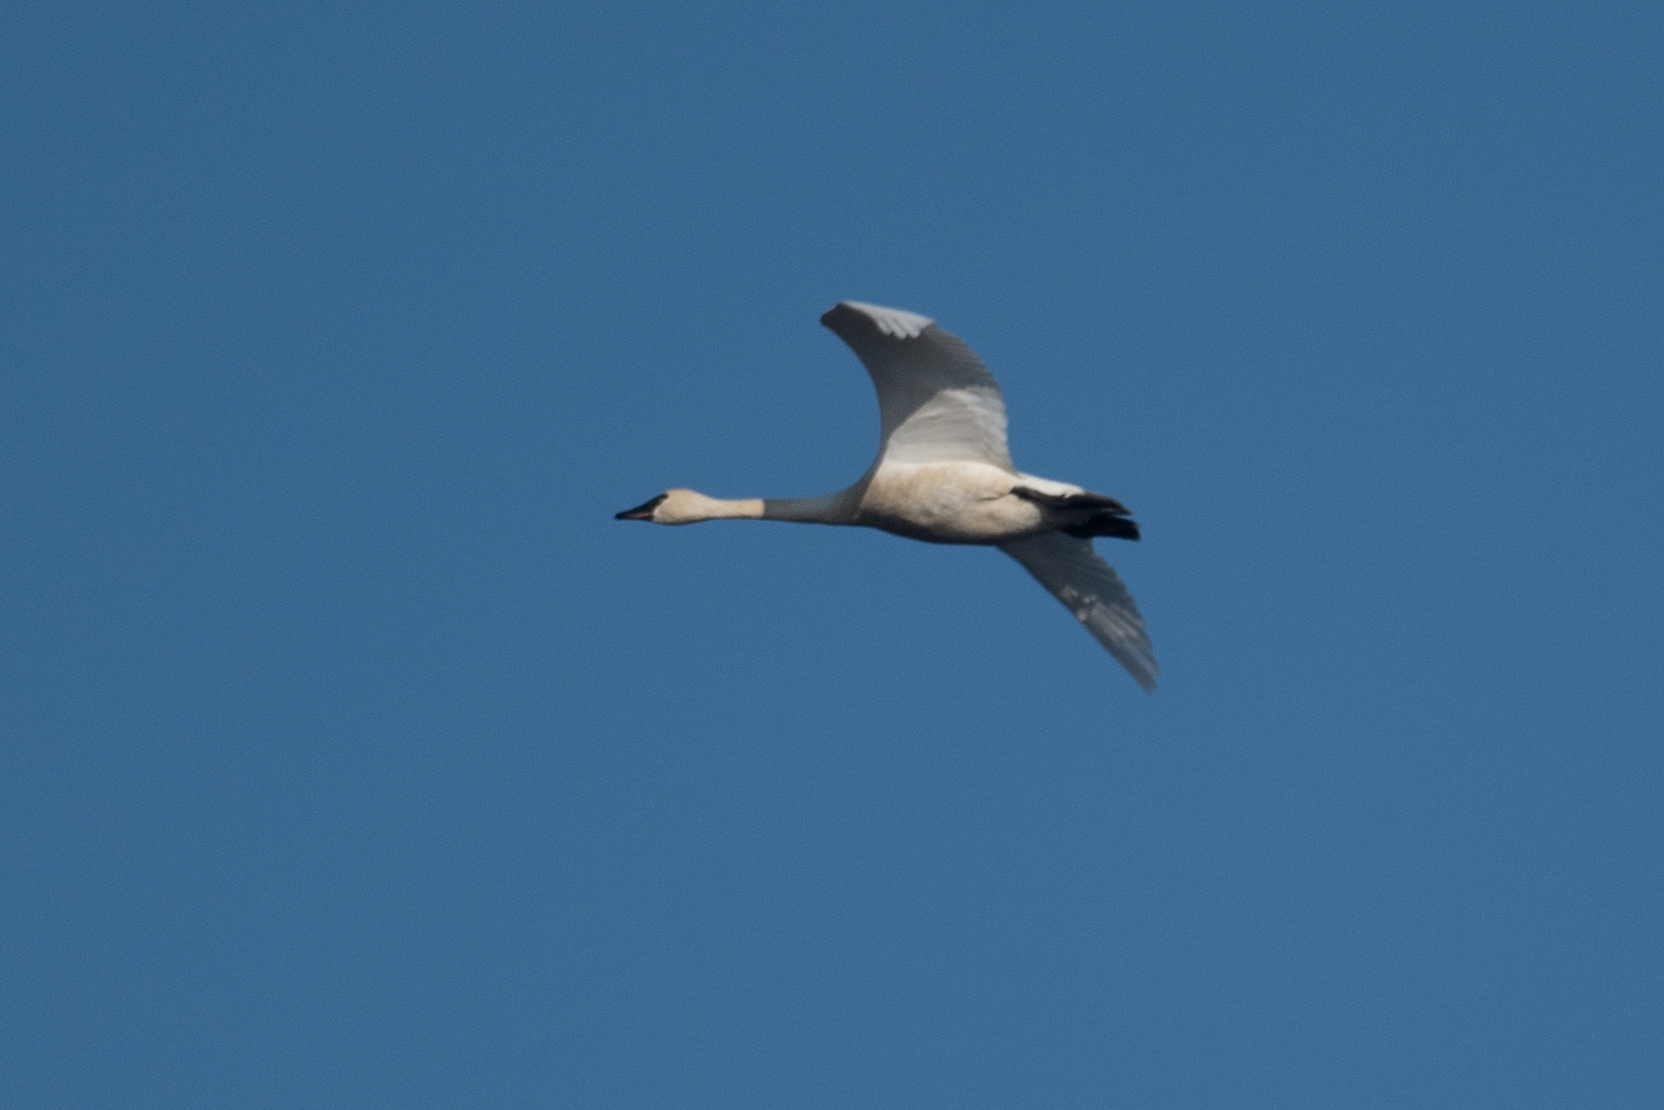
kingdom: Animalia
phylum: Chordata
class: Aves
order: Anseriformes
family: Anatidae
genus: Cygnus
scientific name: Cygnus columbianus
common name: Tundra swan
